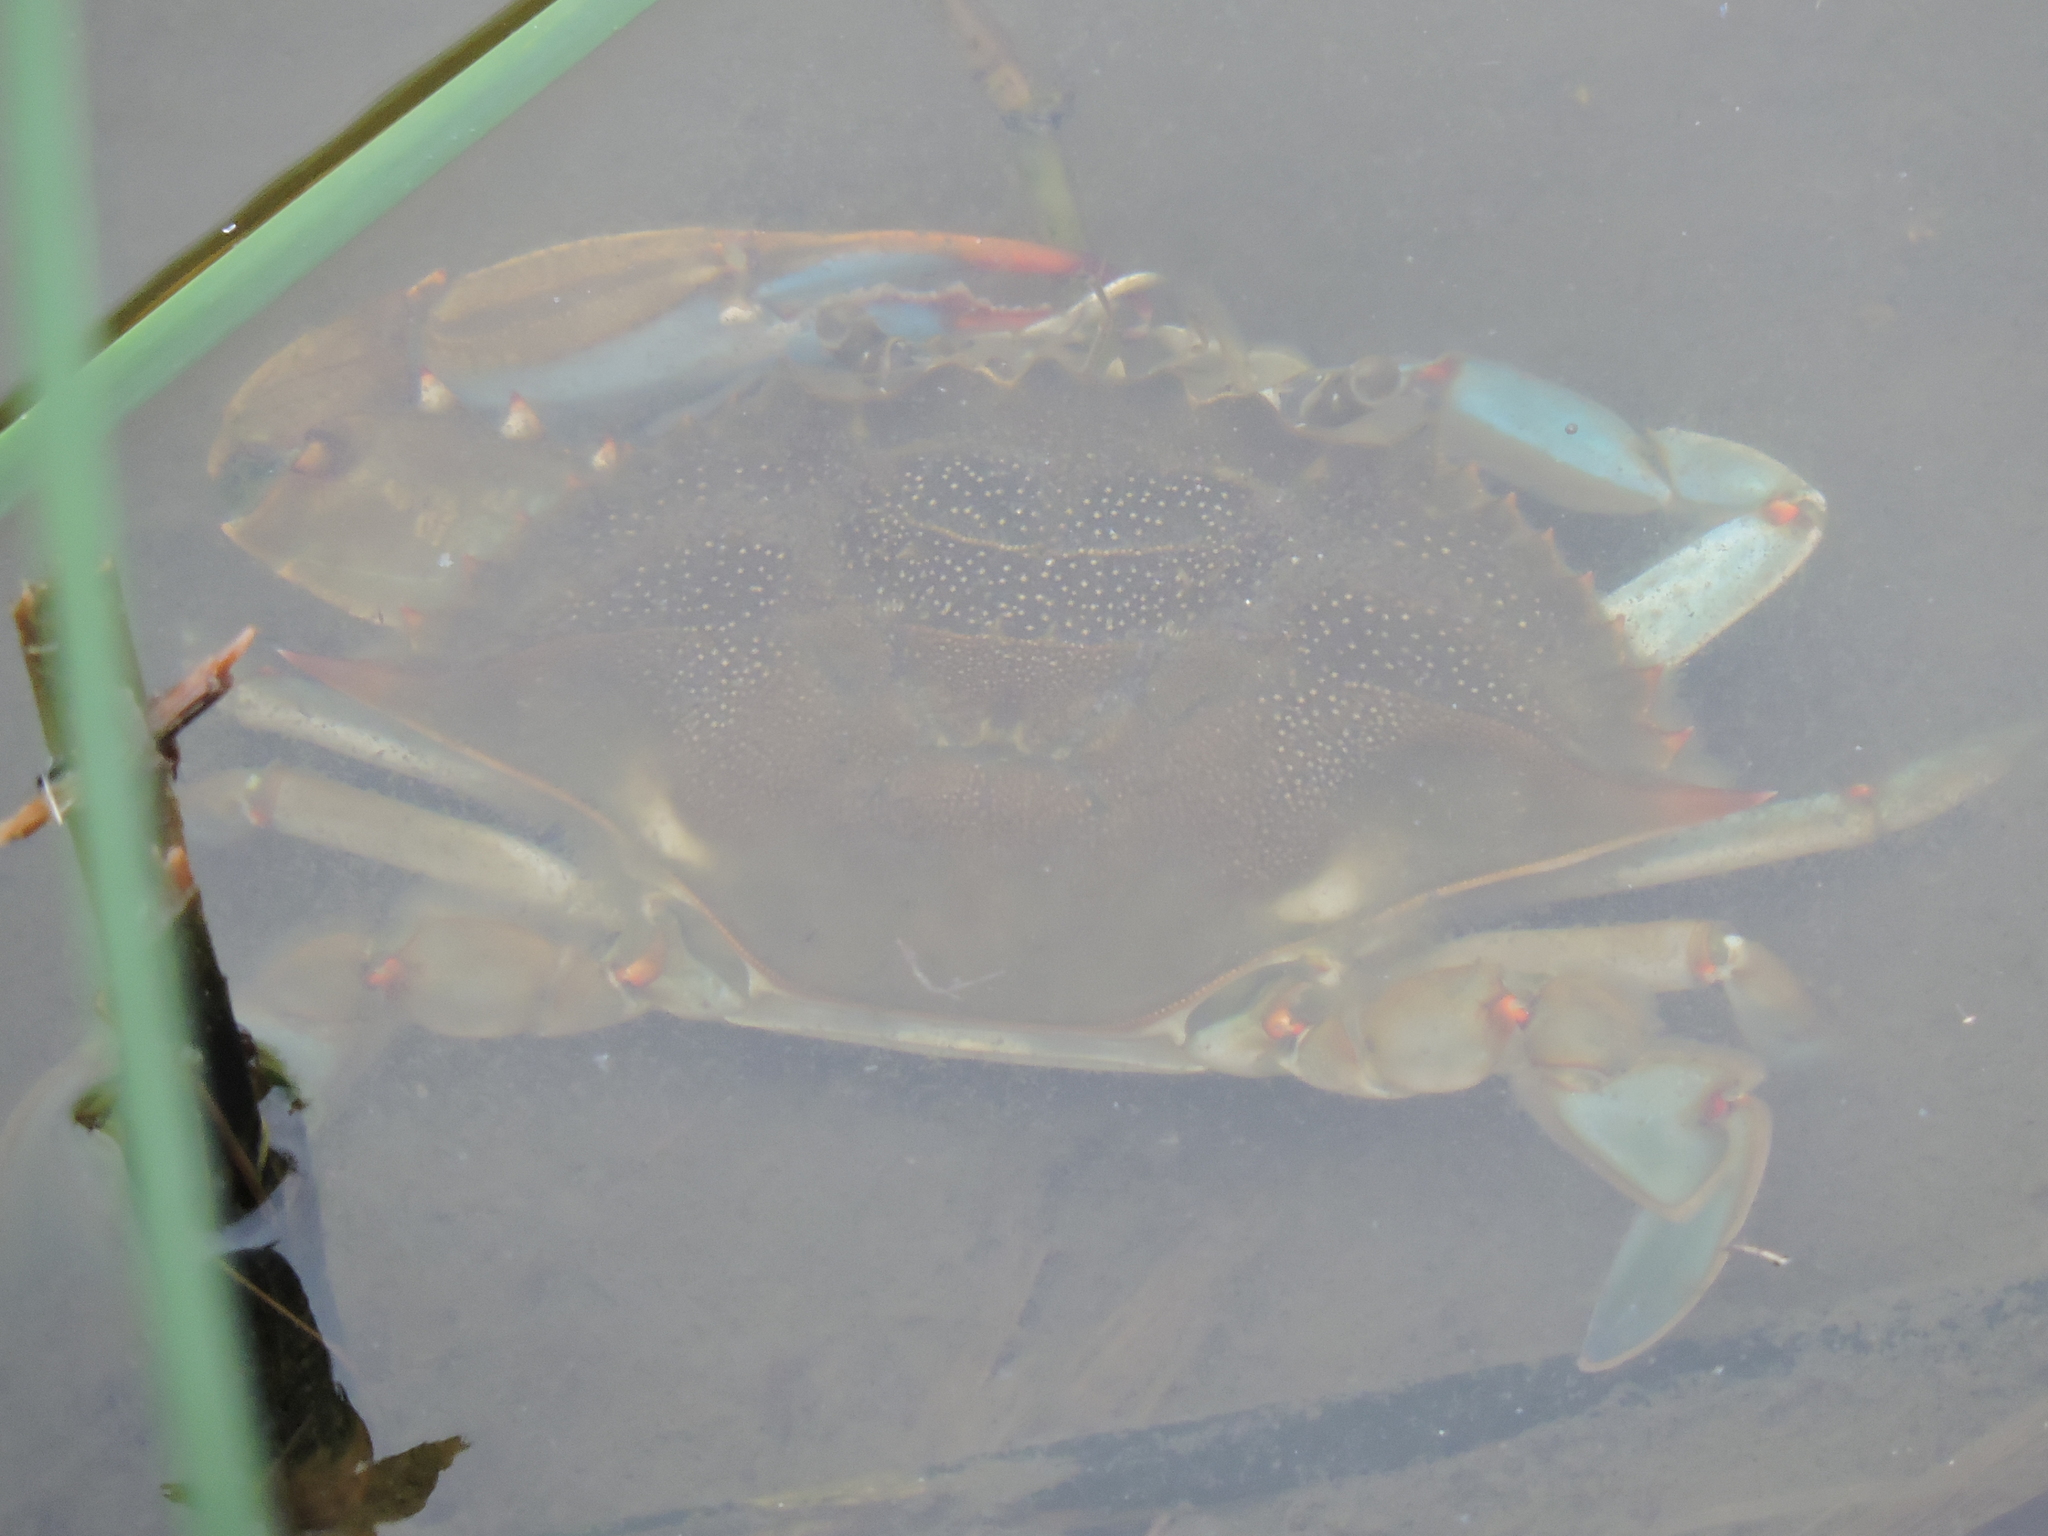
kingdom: Animalia
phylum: Arthropoda
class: Malacostraca
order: Decapoda
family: Portunidae
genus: Callinectes
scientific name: Callinectes sapidus
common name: Blue crab
